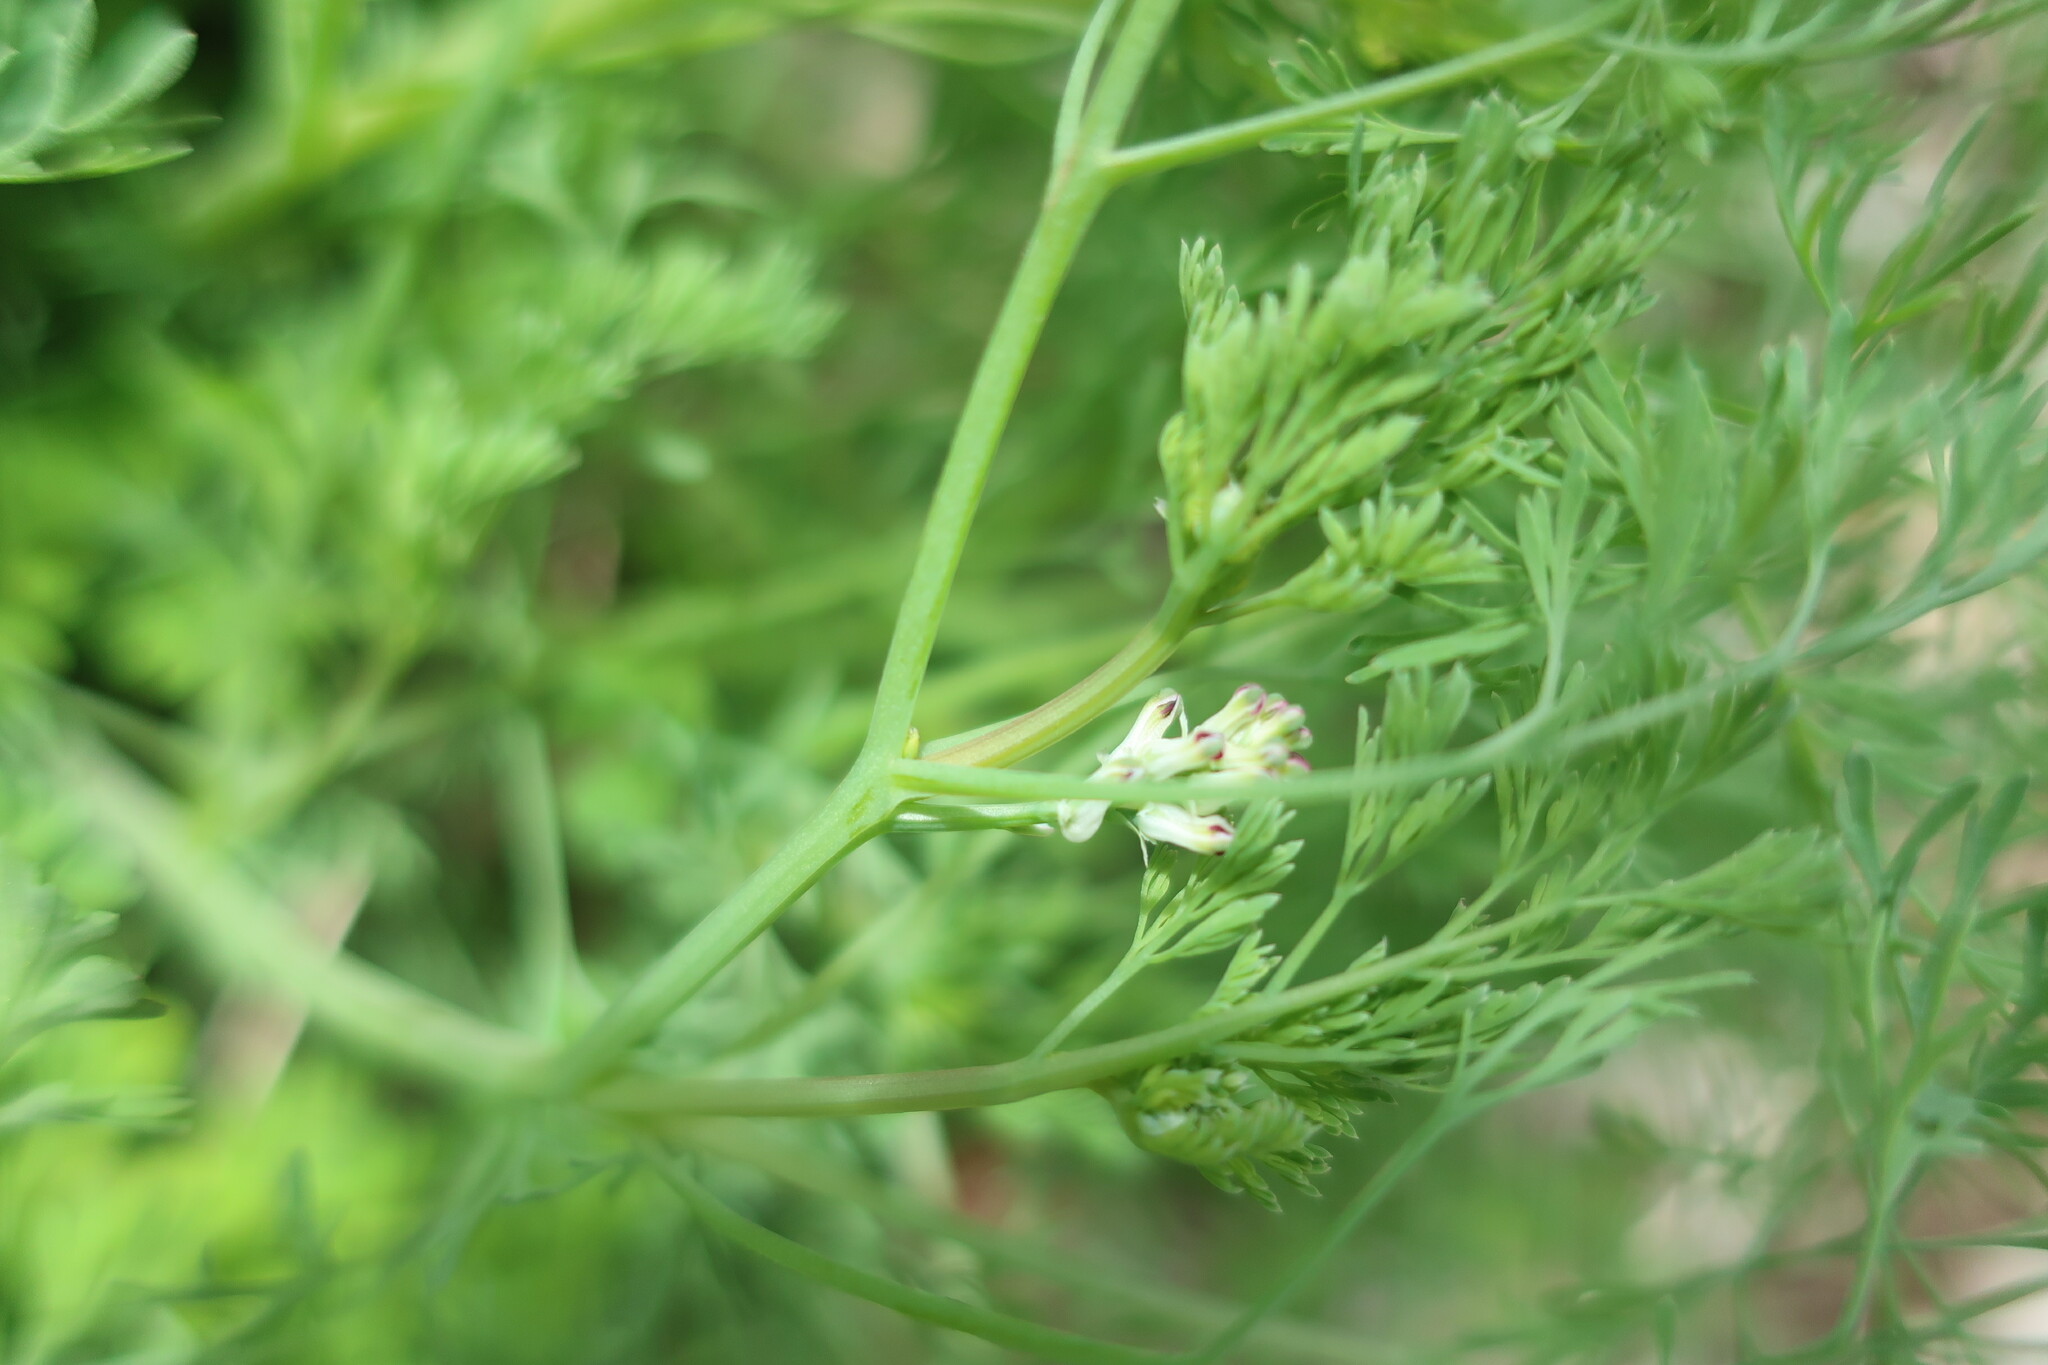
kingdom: Plantae
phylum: Tracheophyta
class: Magnoliopsida
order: Ranunculales
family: Papaveraceae
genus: Fumaria
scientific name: Fumaria parviflora
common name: Fine-leaved fumitory
